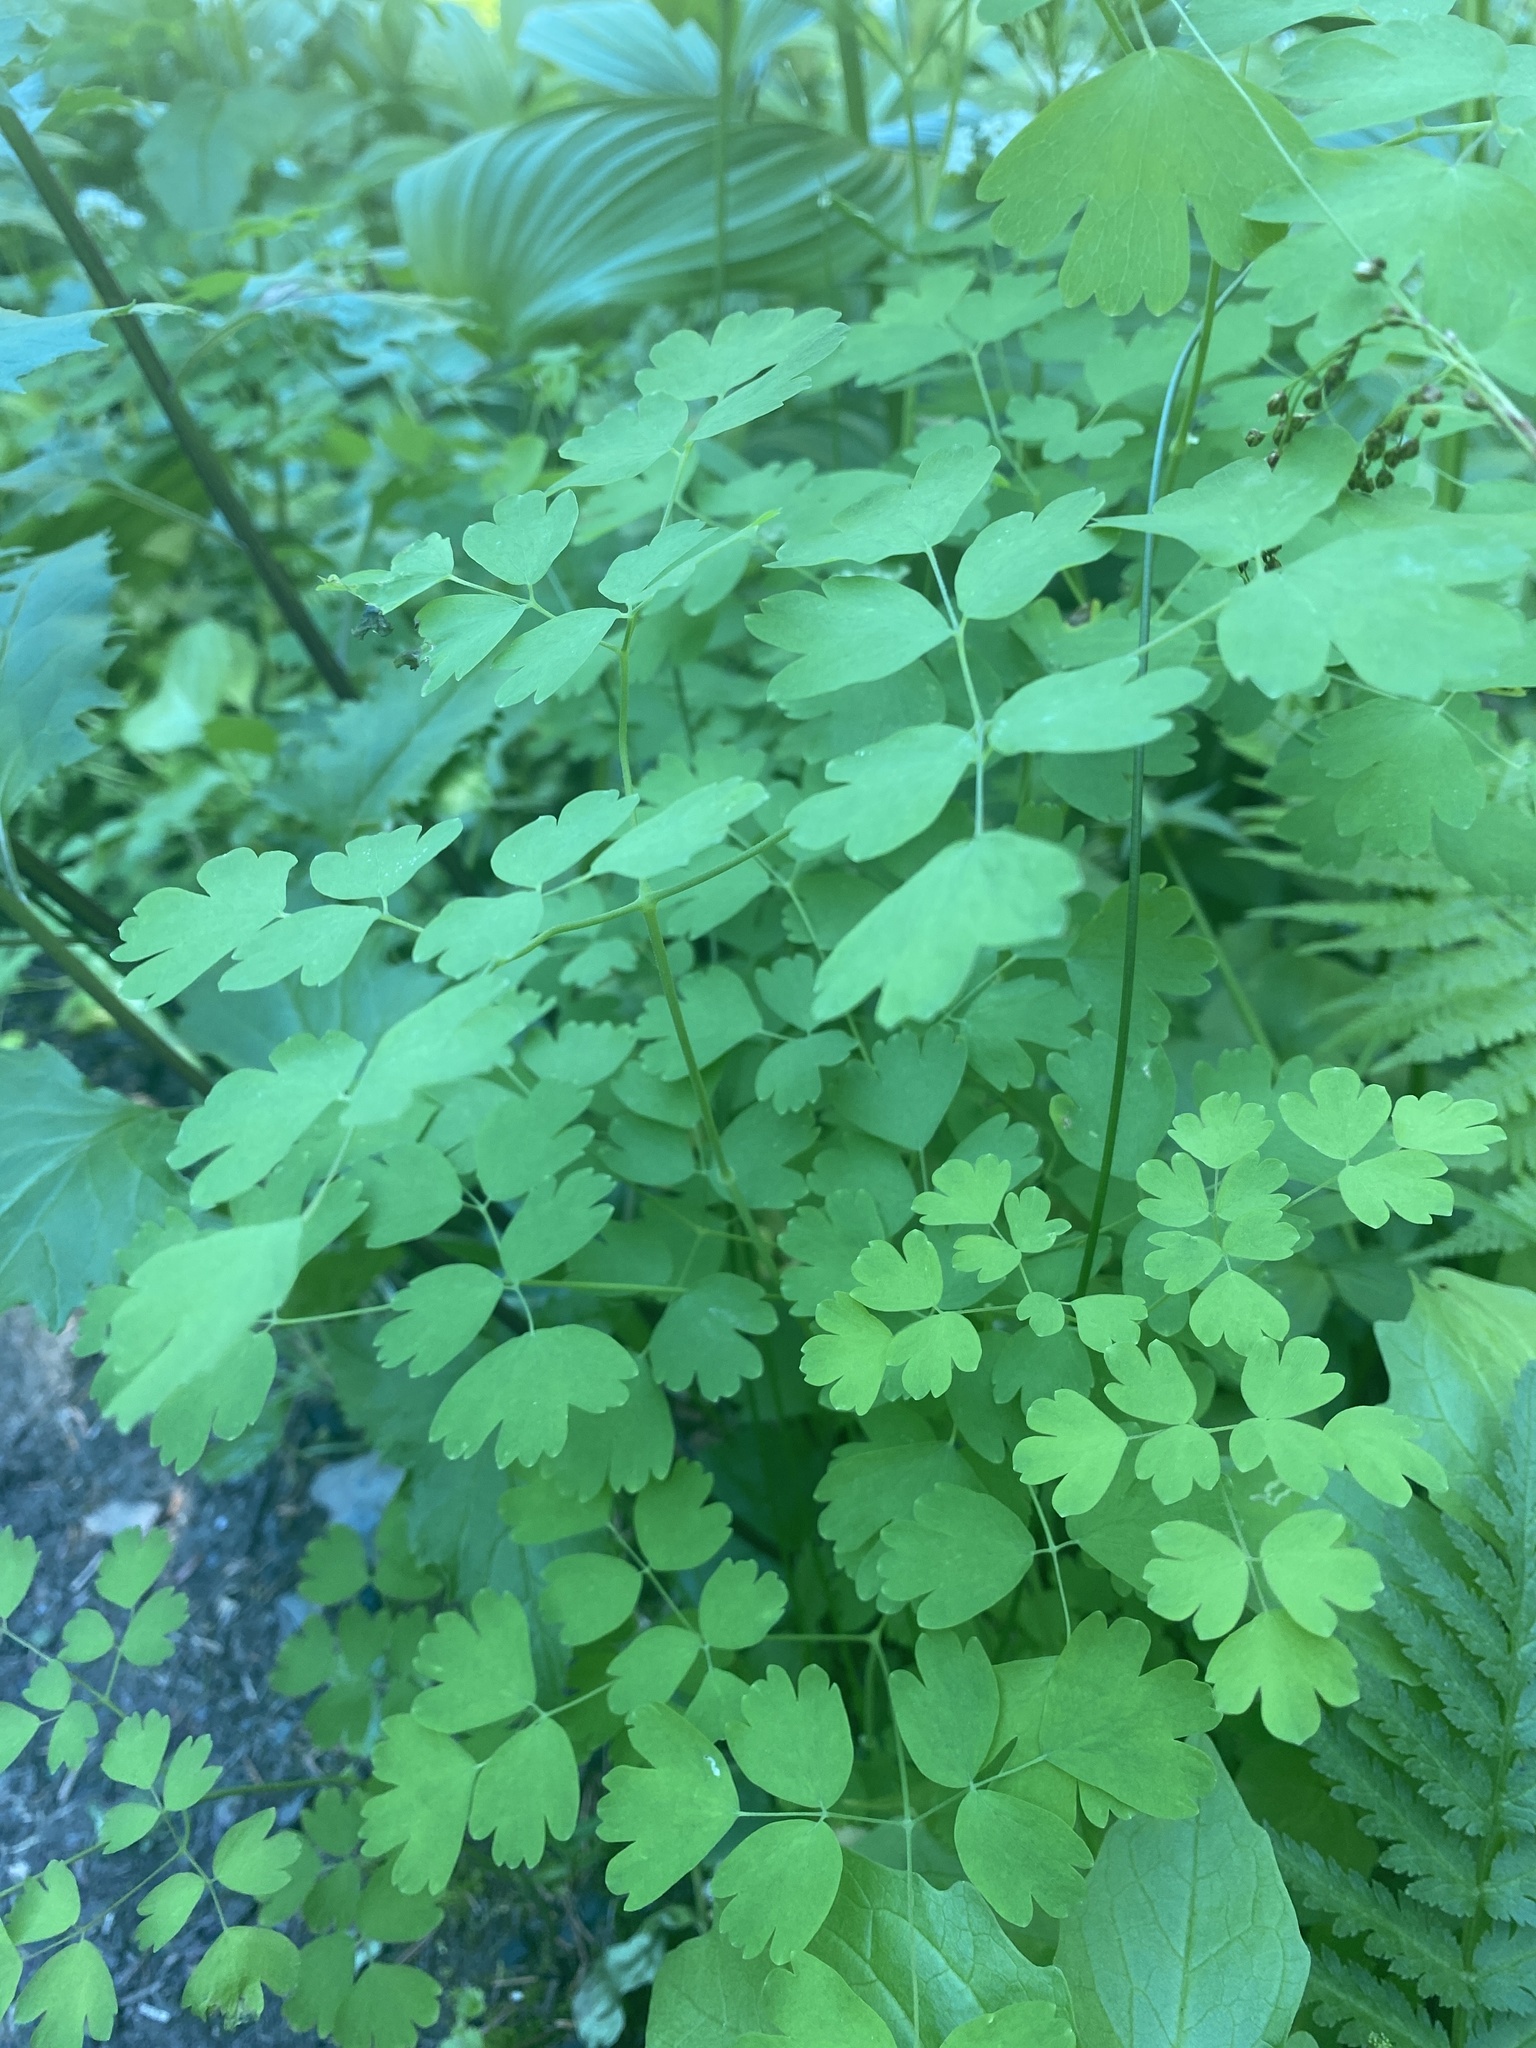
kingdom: Plantae
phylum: Tracheophyta
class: Magnoliopsida
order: Ranunculales
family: Ranunculaceae
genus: Thalictrum
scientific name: Thalictrum occidentale
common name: Western meadow-rue
